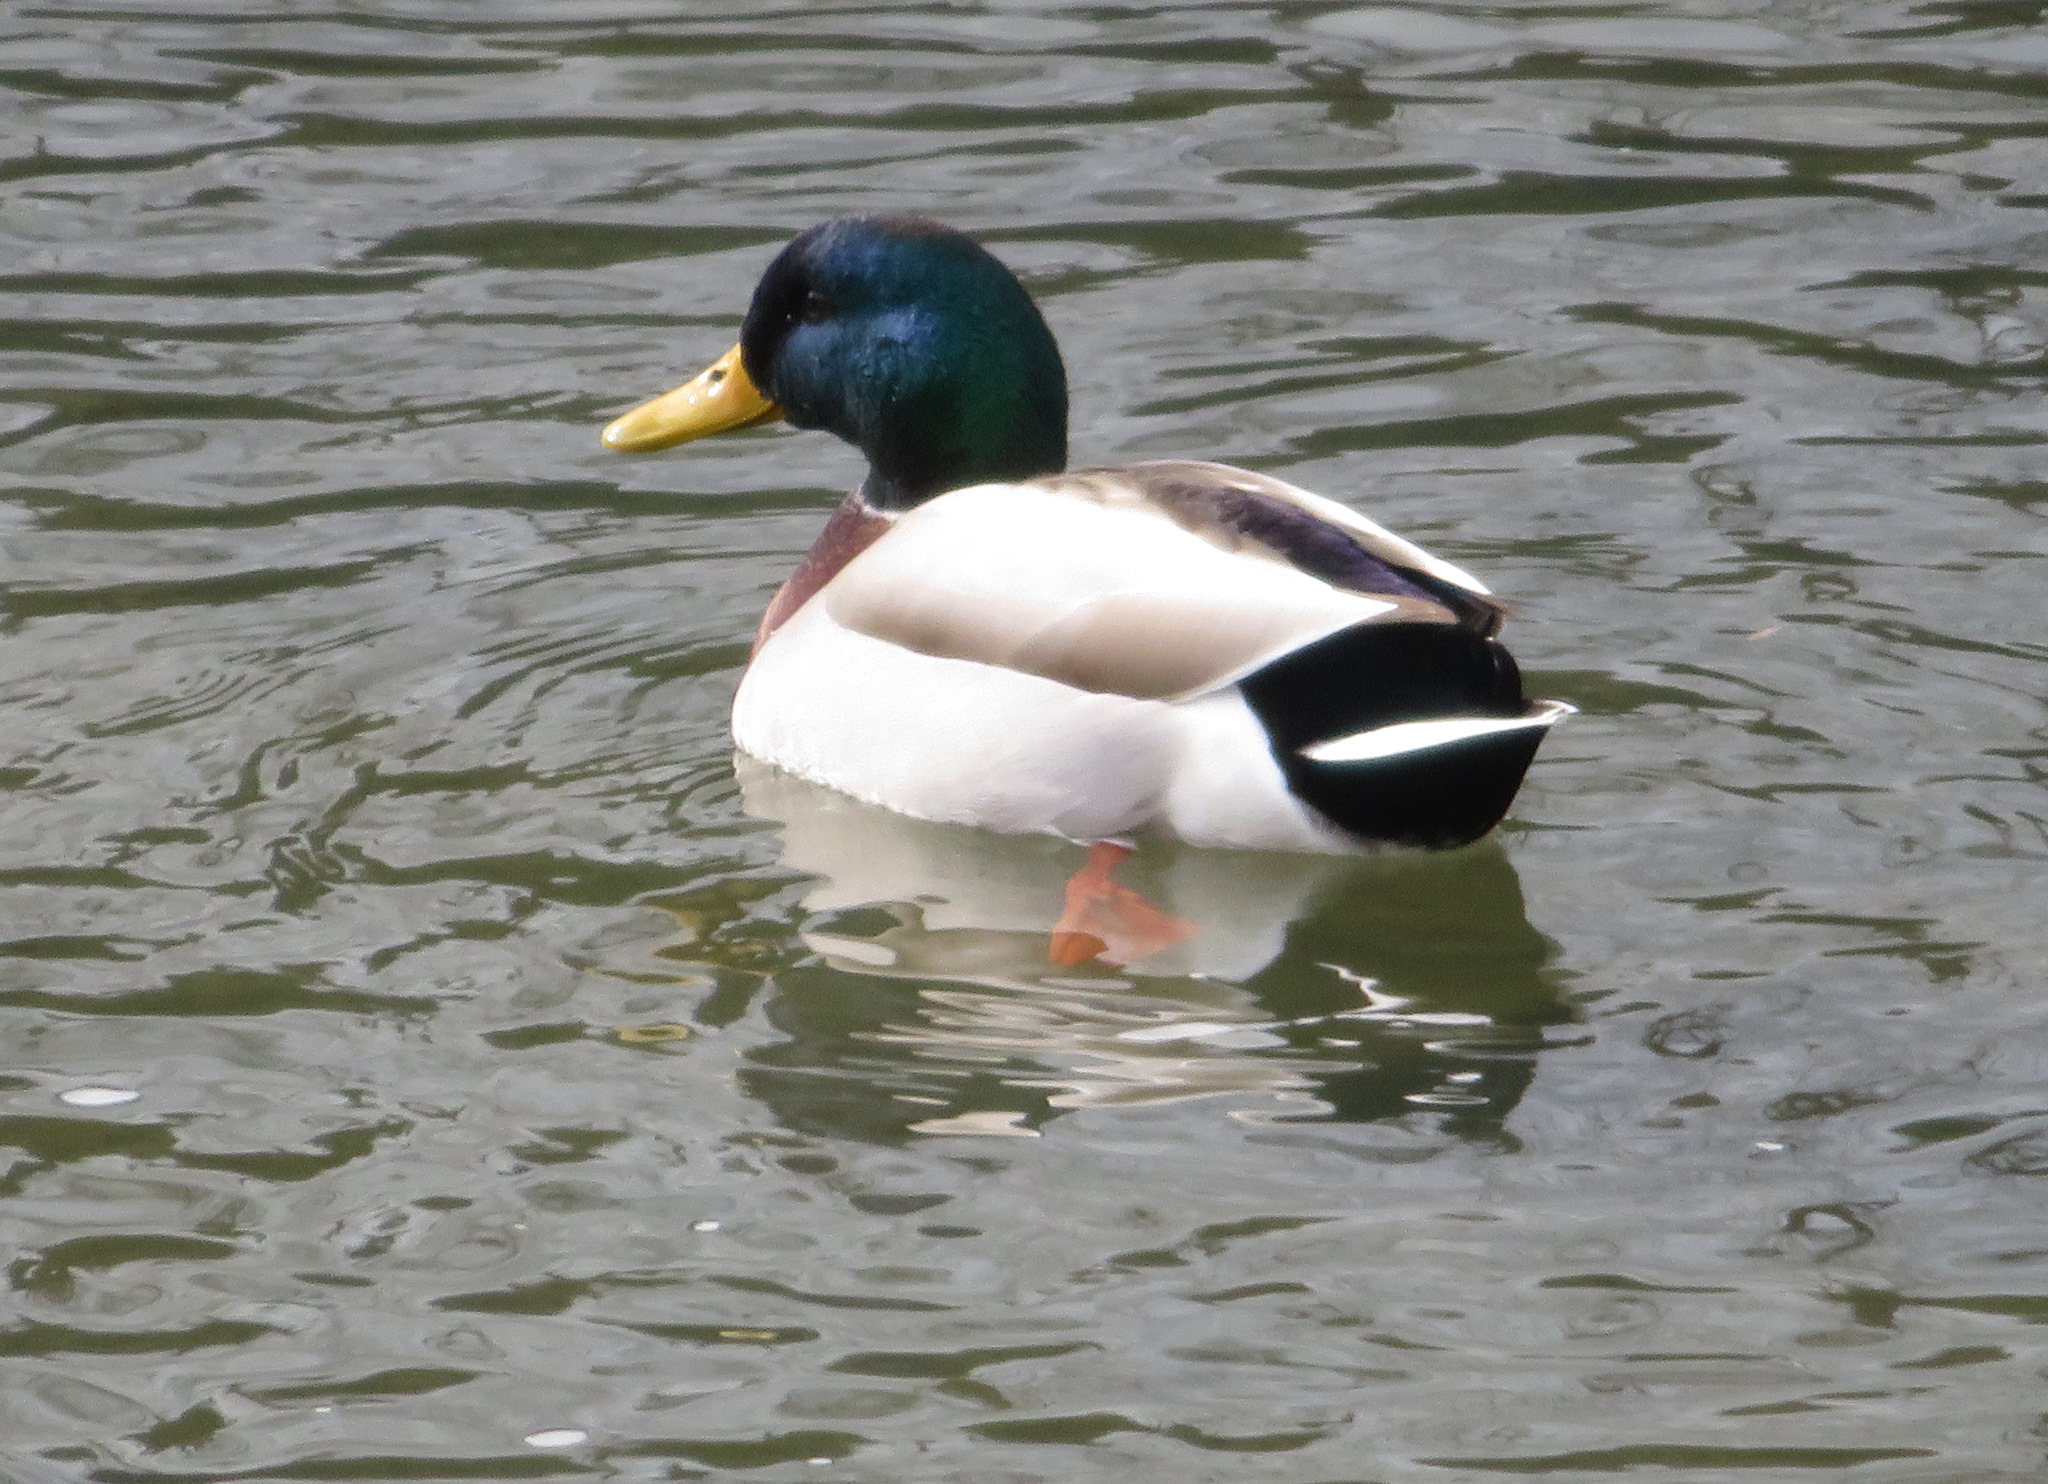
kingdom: Animalia
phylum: Chordata
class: Aves
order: Anseriformes
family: Anatidae
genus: Anas
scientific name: Anas platyrhynchos
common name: Mallard
